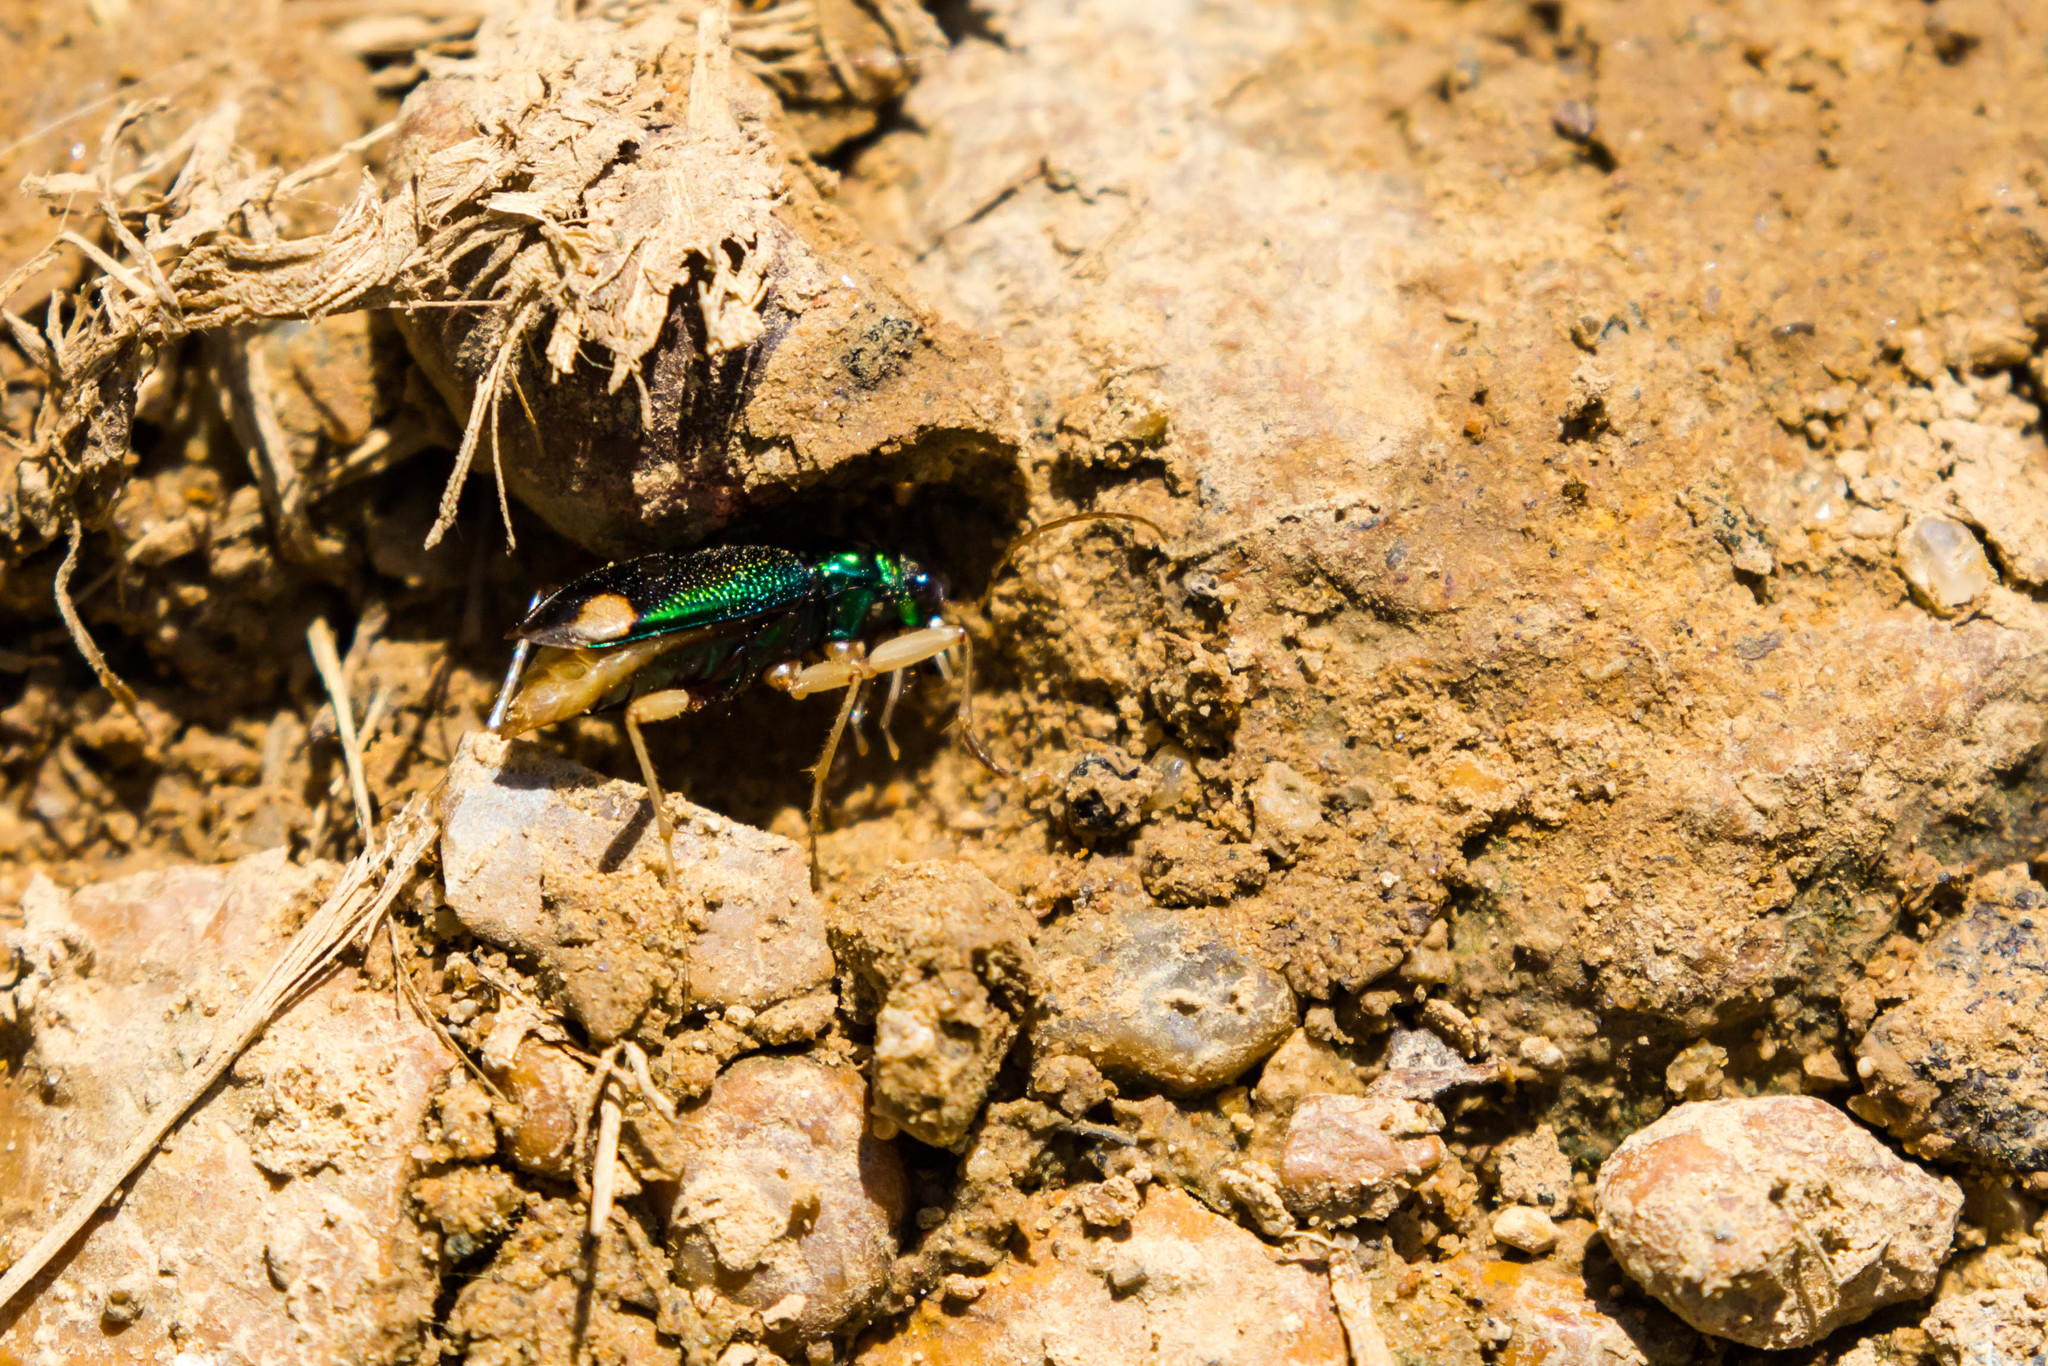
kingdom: Animalia
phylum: Arthropoda
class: Insecta
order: Coleoptera
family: Carabidae
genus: Tetracha
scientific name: Tetracha carolina
